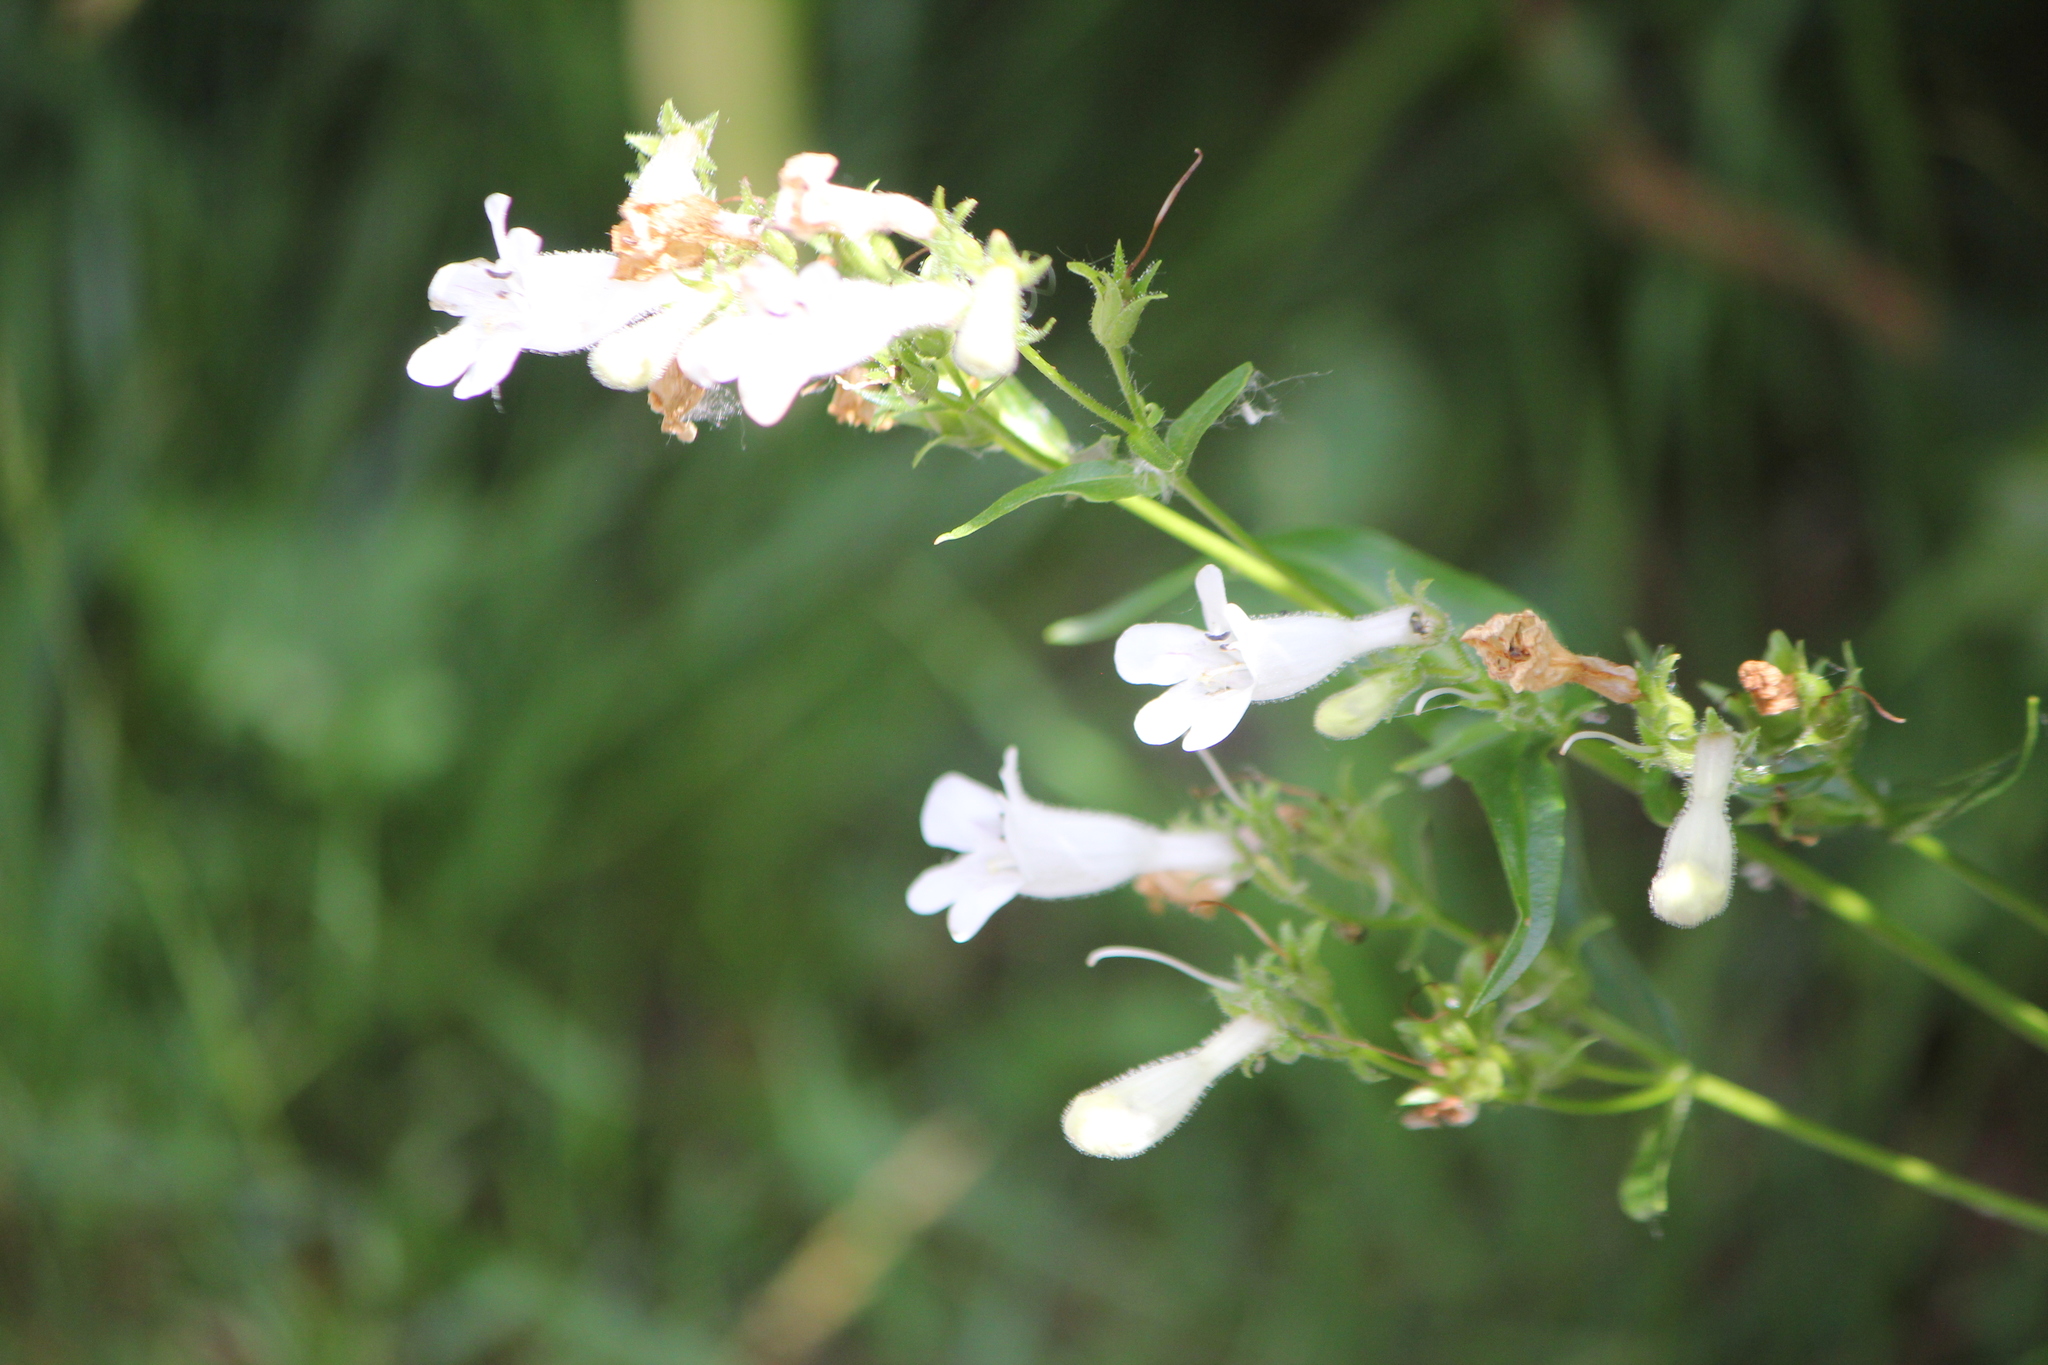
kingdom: Plantae
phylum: Tracheophyta
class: Magnoliopsida
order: Lamiales
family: Plantaginaceae
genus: Penstemon
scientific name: Penstemon digitalis
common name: Foxglove beardtongue
